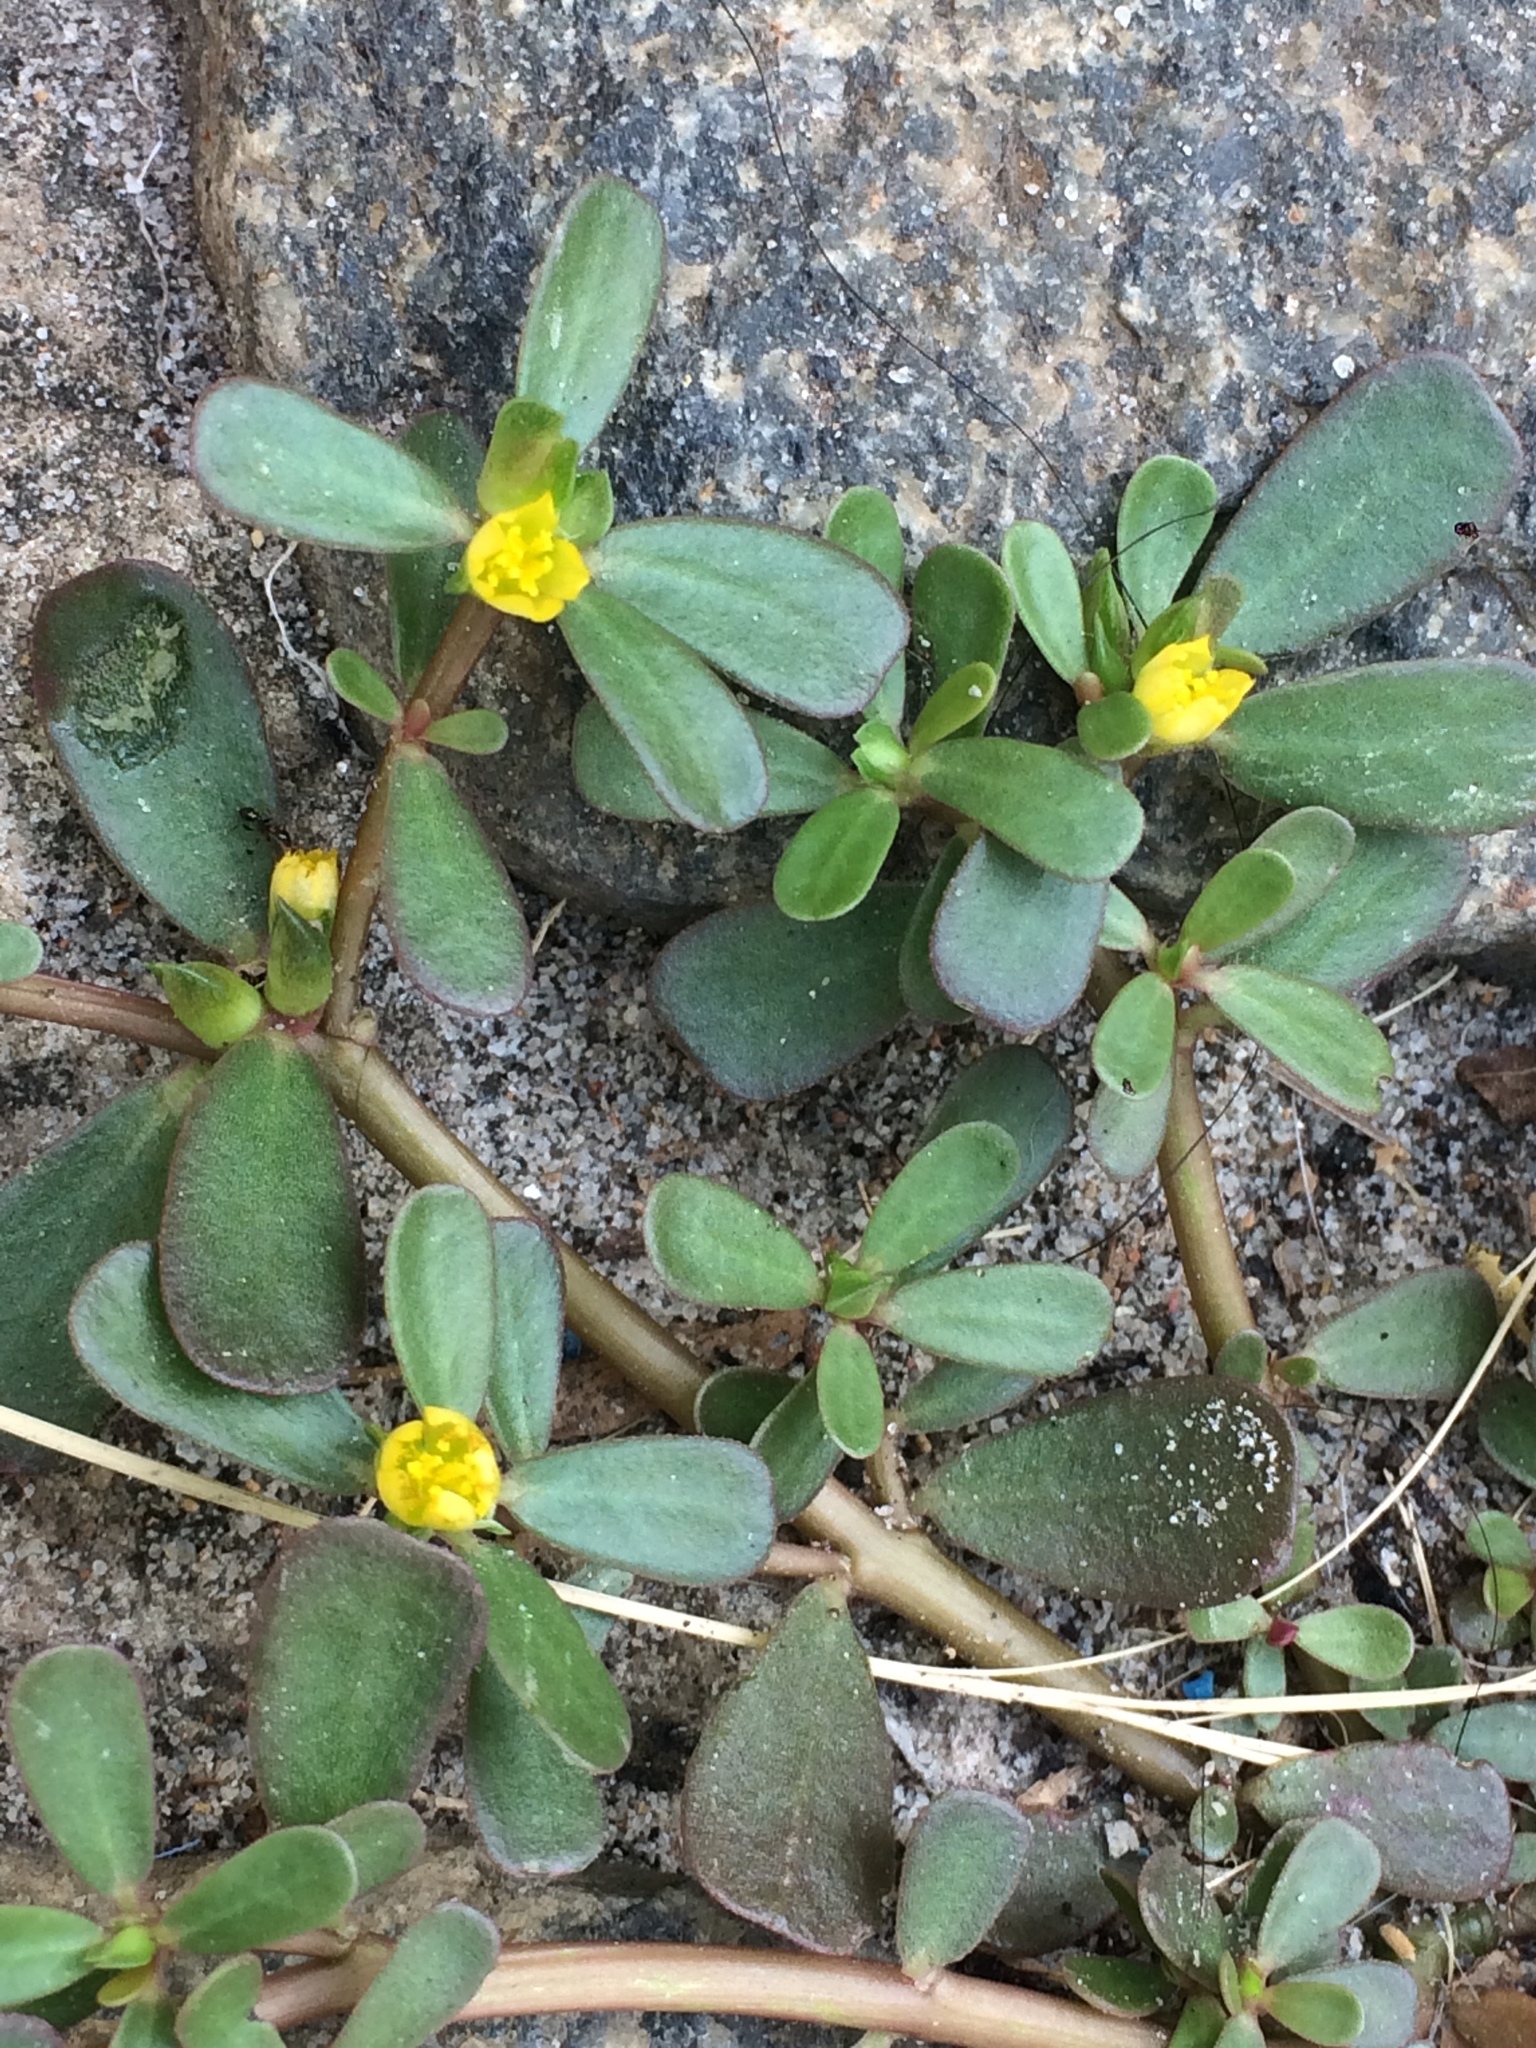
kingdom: Plantae
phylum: Tracheophyta
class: Magnoliopsida
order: Caryophyllales
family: Portulacaceae
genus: Portulaca
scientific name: Portulaca oleracea
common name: Common purslane
